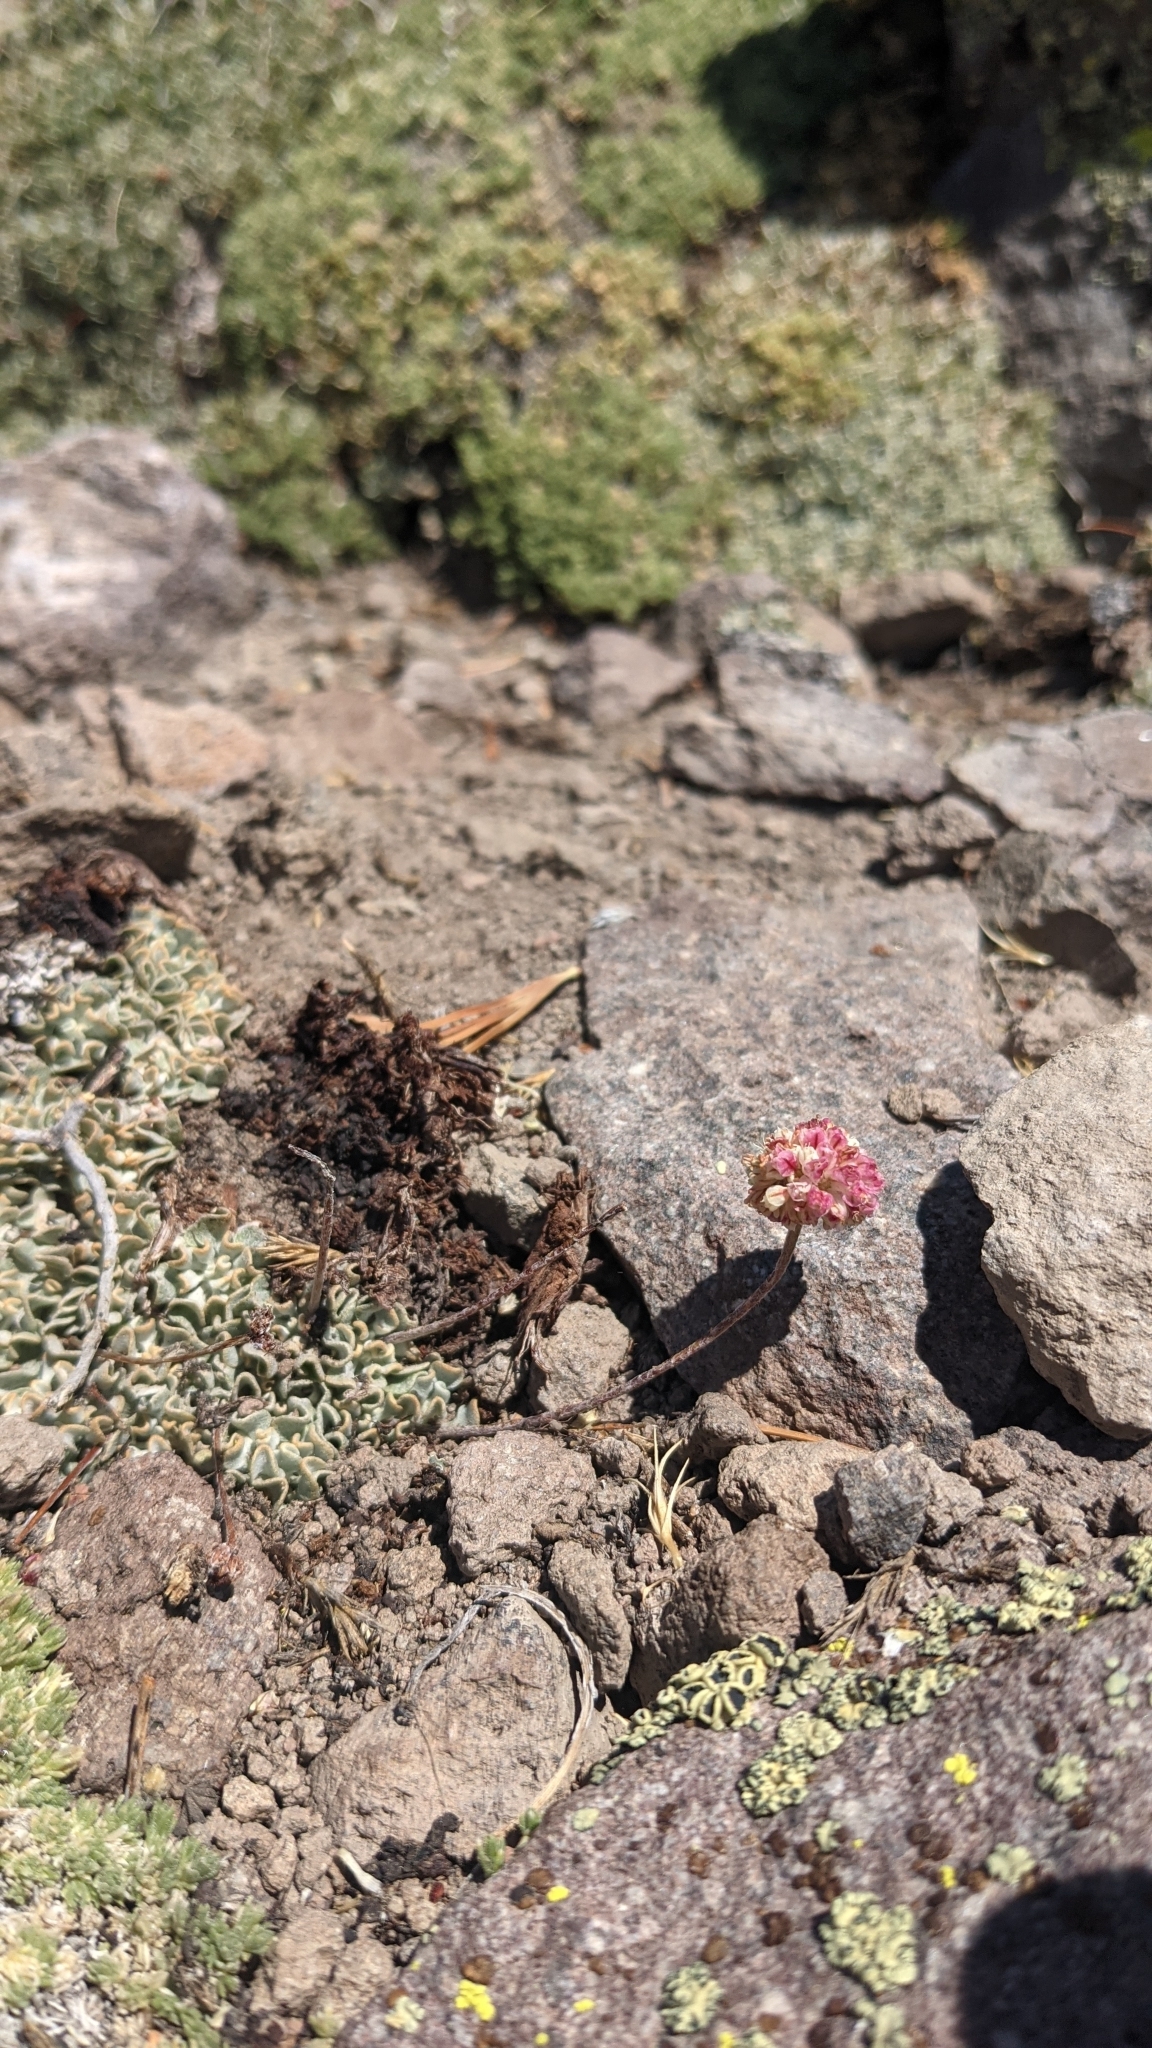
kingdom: Plantae
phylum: Tracheophyta
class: Magnoliopsida
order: Caryophyllales
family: Polygonaceae
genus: Eriogonum
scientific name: Eriogonum ovalifolium
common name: Cushion buckwheat
